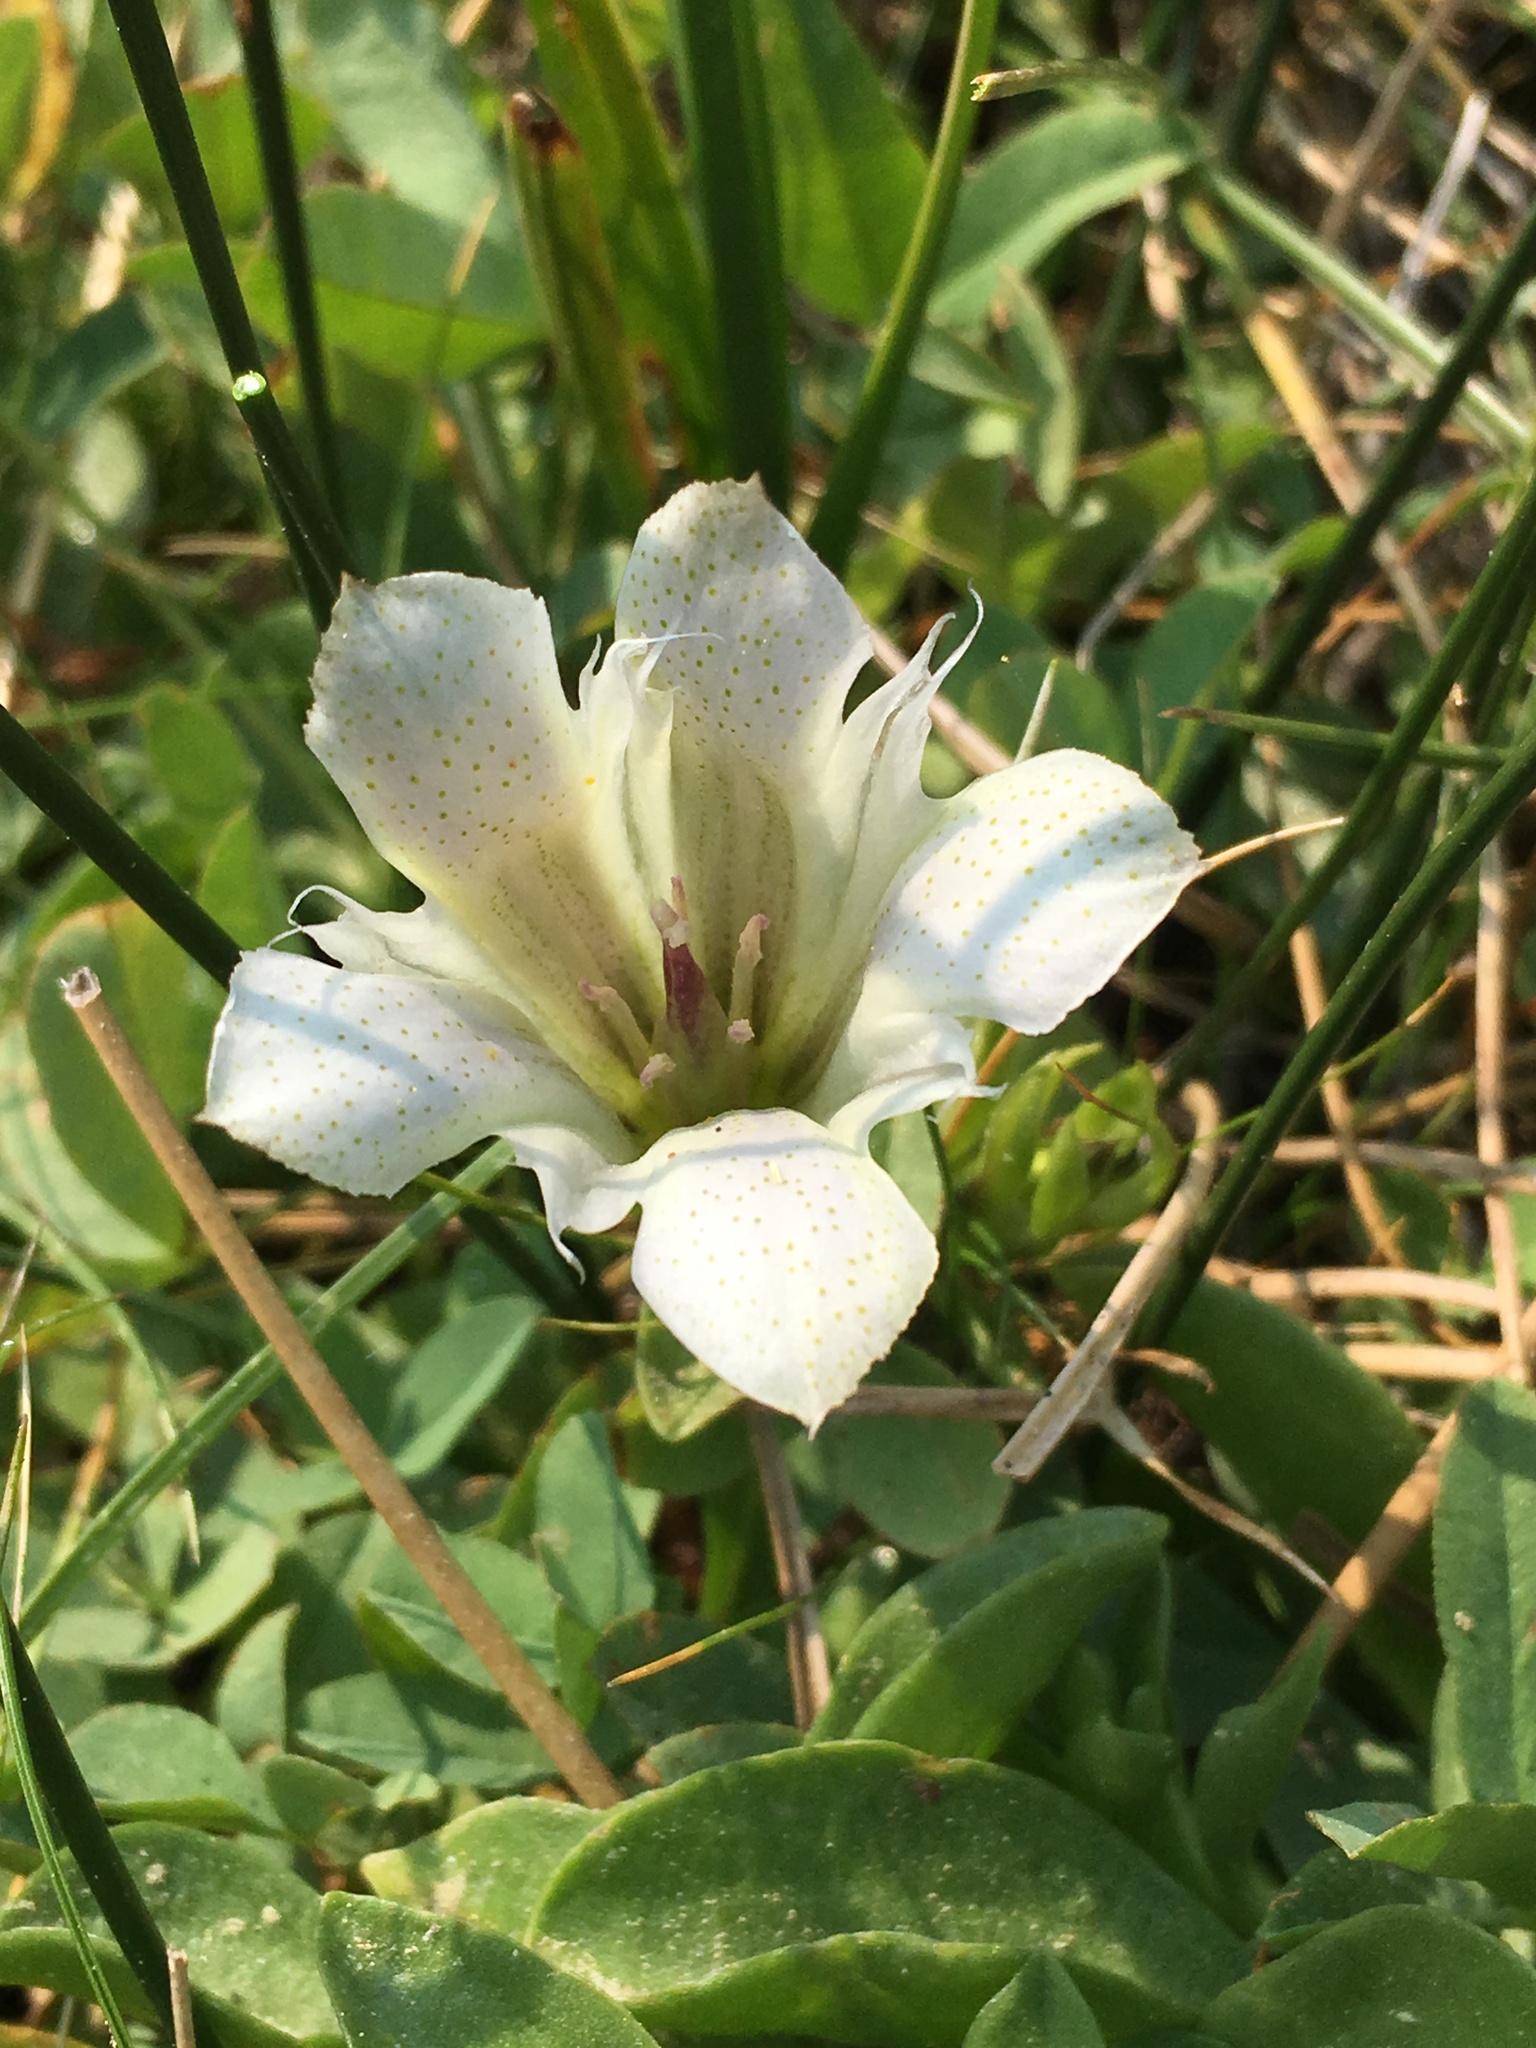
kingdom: Plantae
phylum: Tracheophyta
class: Magnoliopsida
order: Gentianales
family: Gentianaceae
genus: Gentiana
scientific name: Gentiana newberryi
